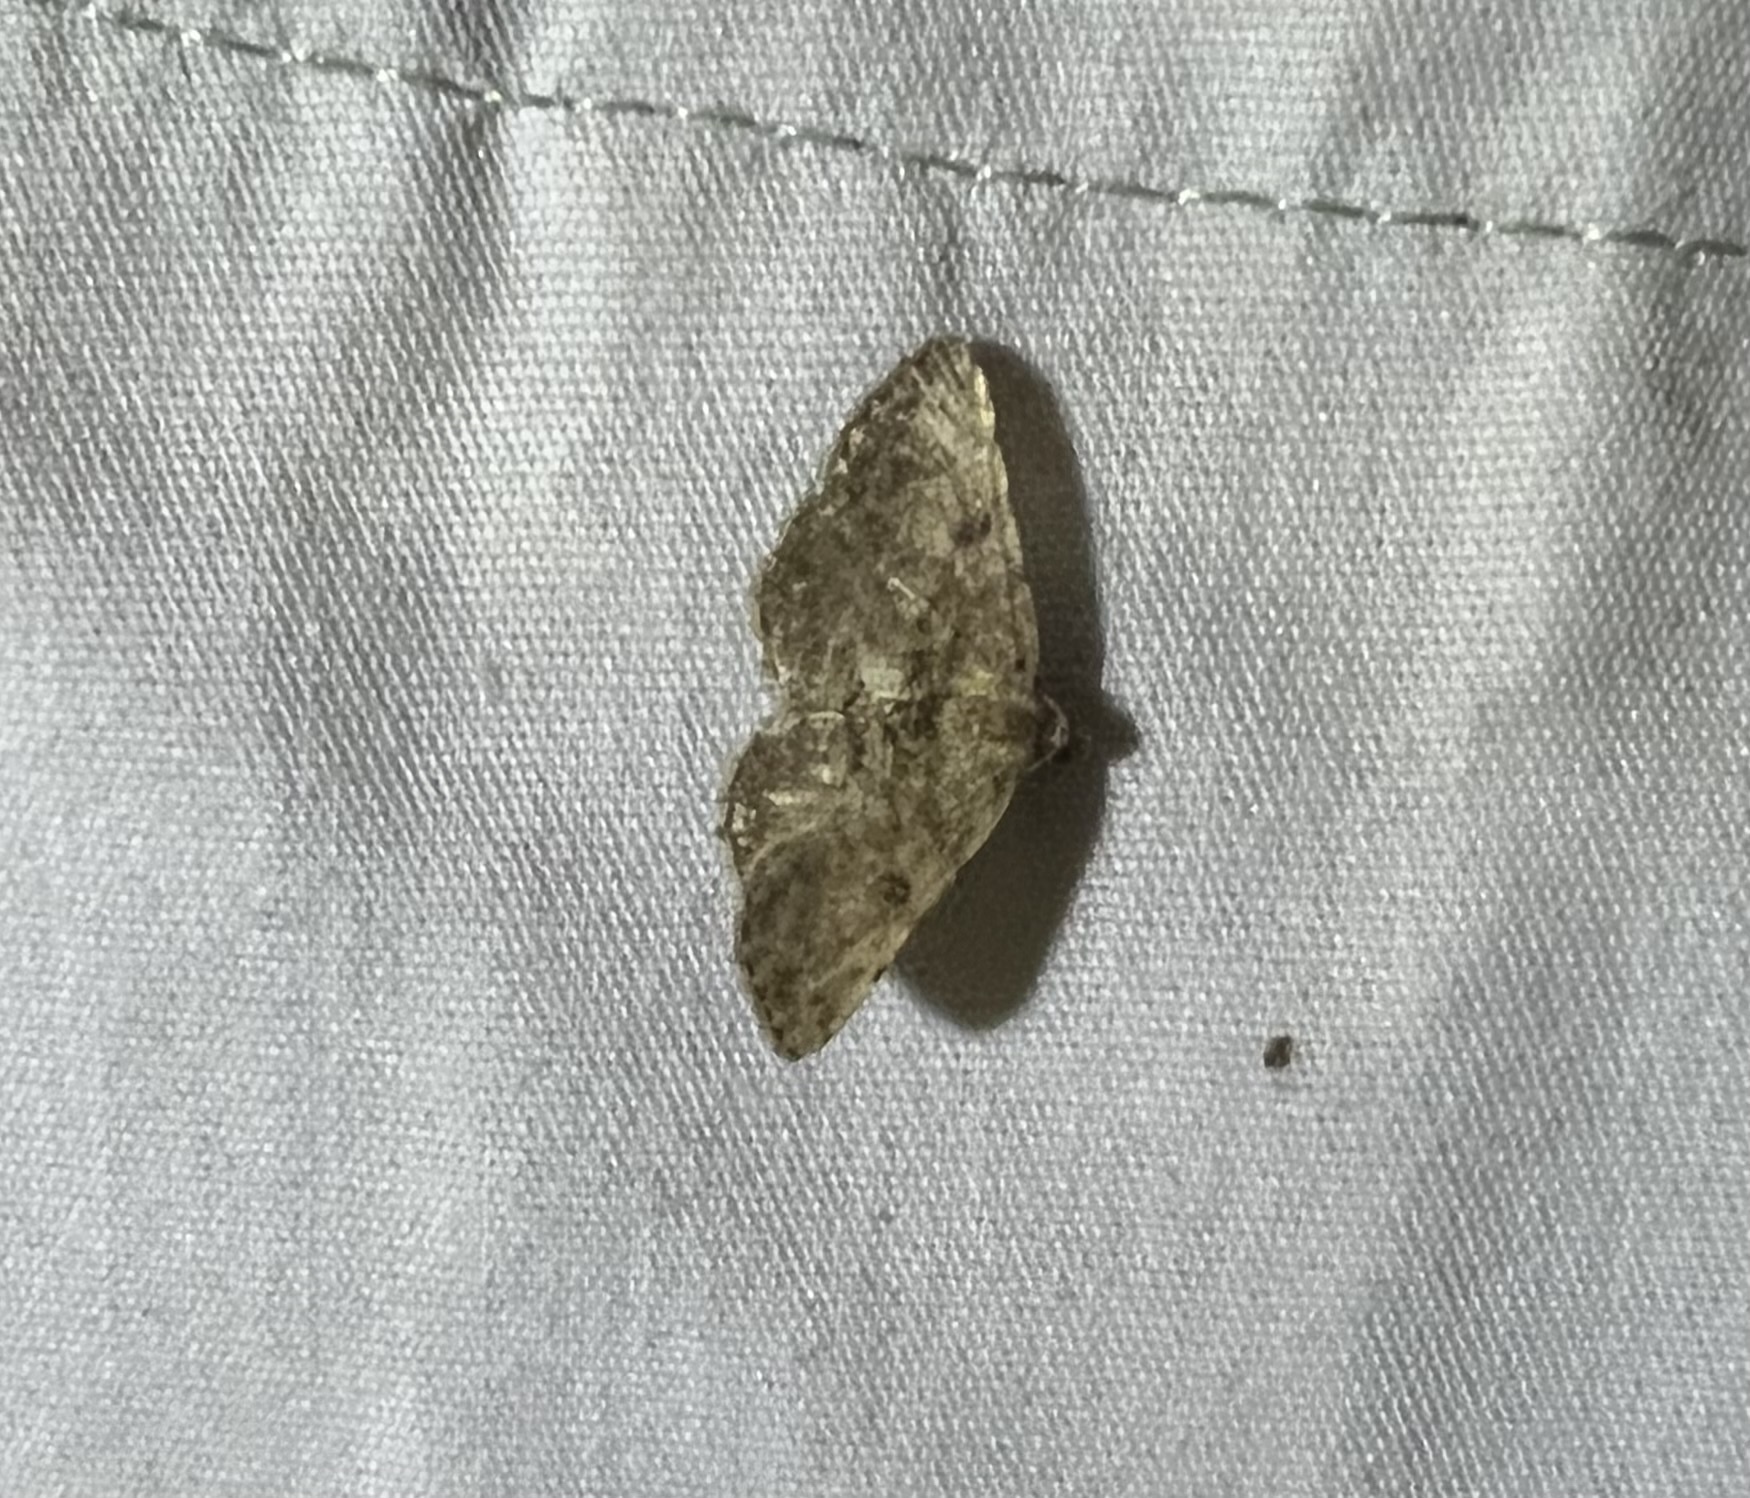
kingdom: Animalia
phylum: Arthropoda
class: Insecta
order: Lepidoptera
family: Geometridae
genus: Digrammia
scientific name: Digrammia gnophosaria
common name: Hollow-spotted angle
